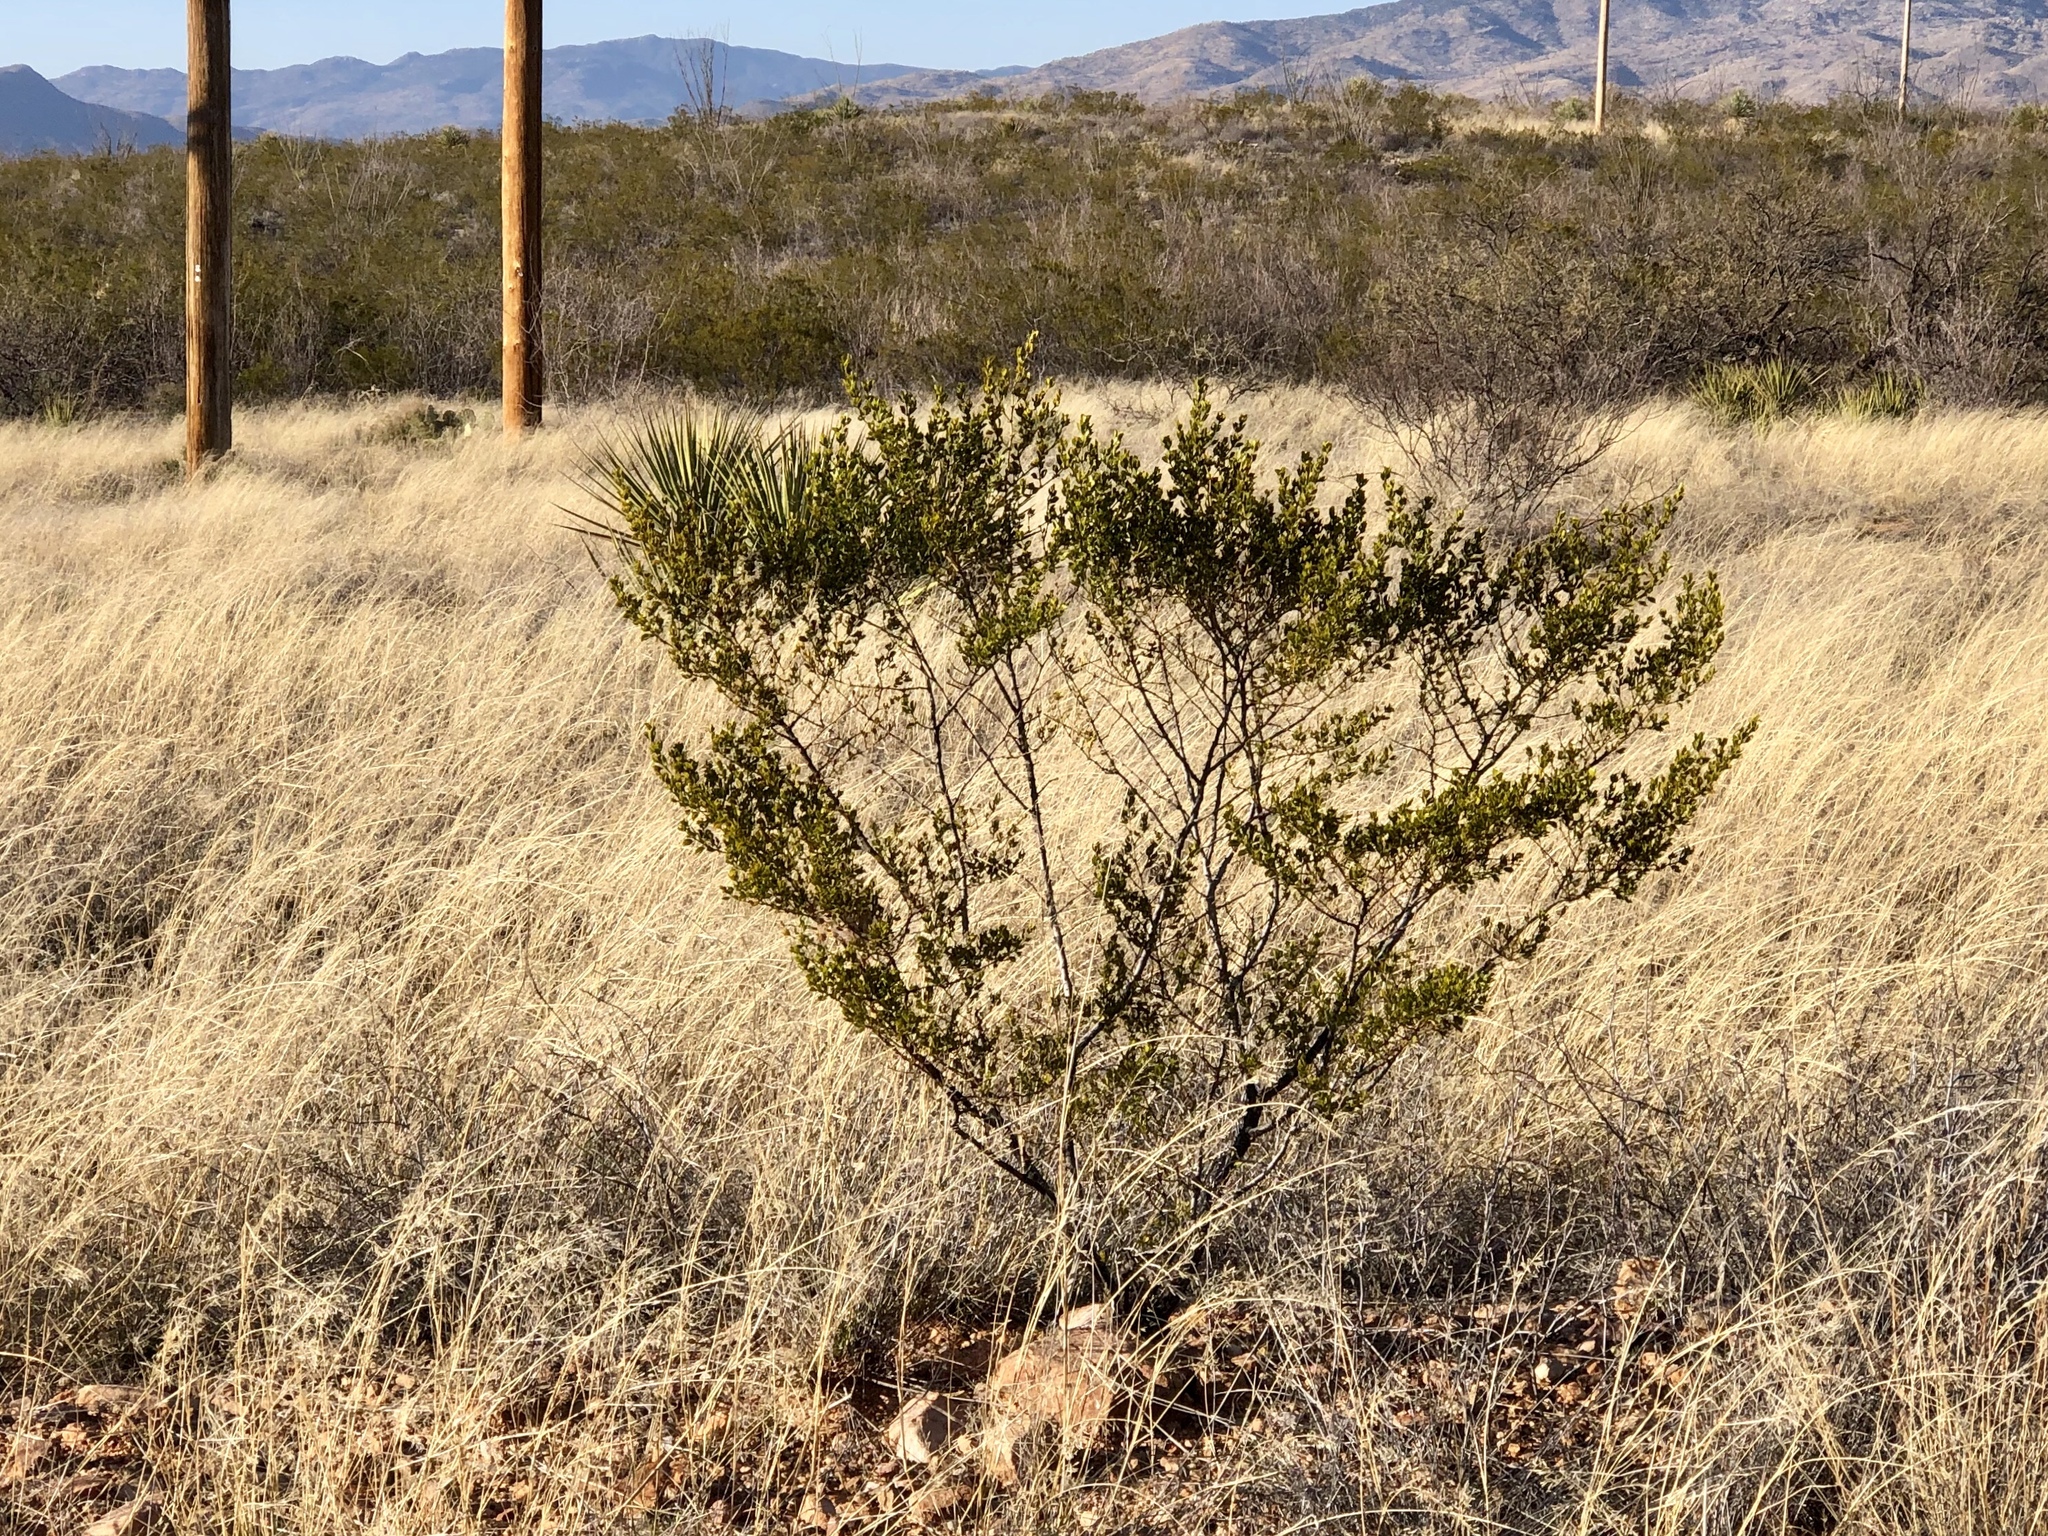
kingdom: Plantae
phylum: Tracheophyta
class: Magnoliopsida
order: Zygophyllales
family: Zygophyllaceae
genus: Larrea
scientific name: Larrea tridentata
